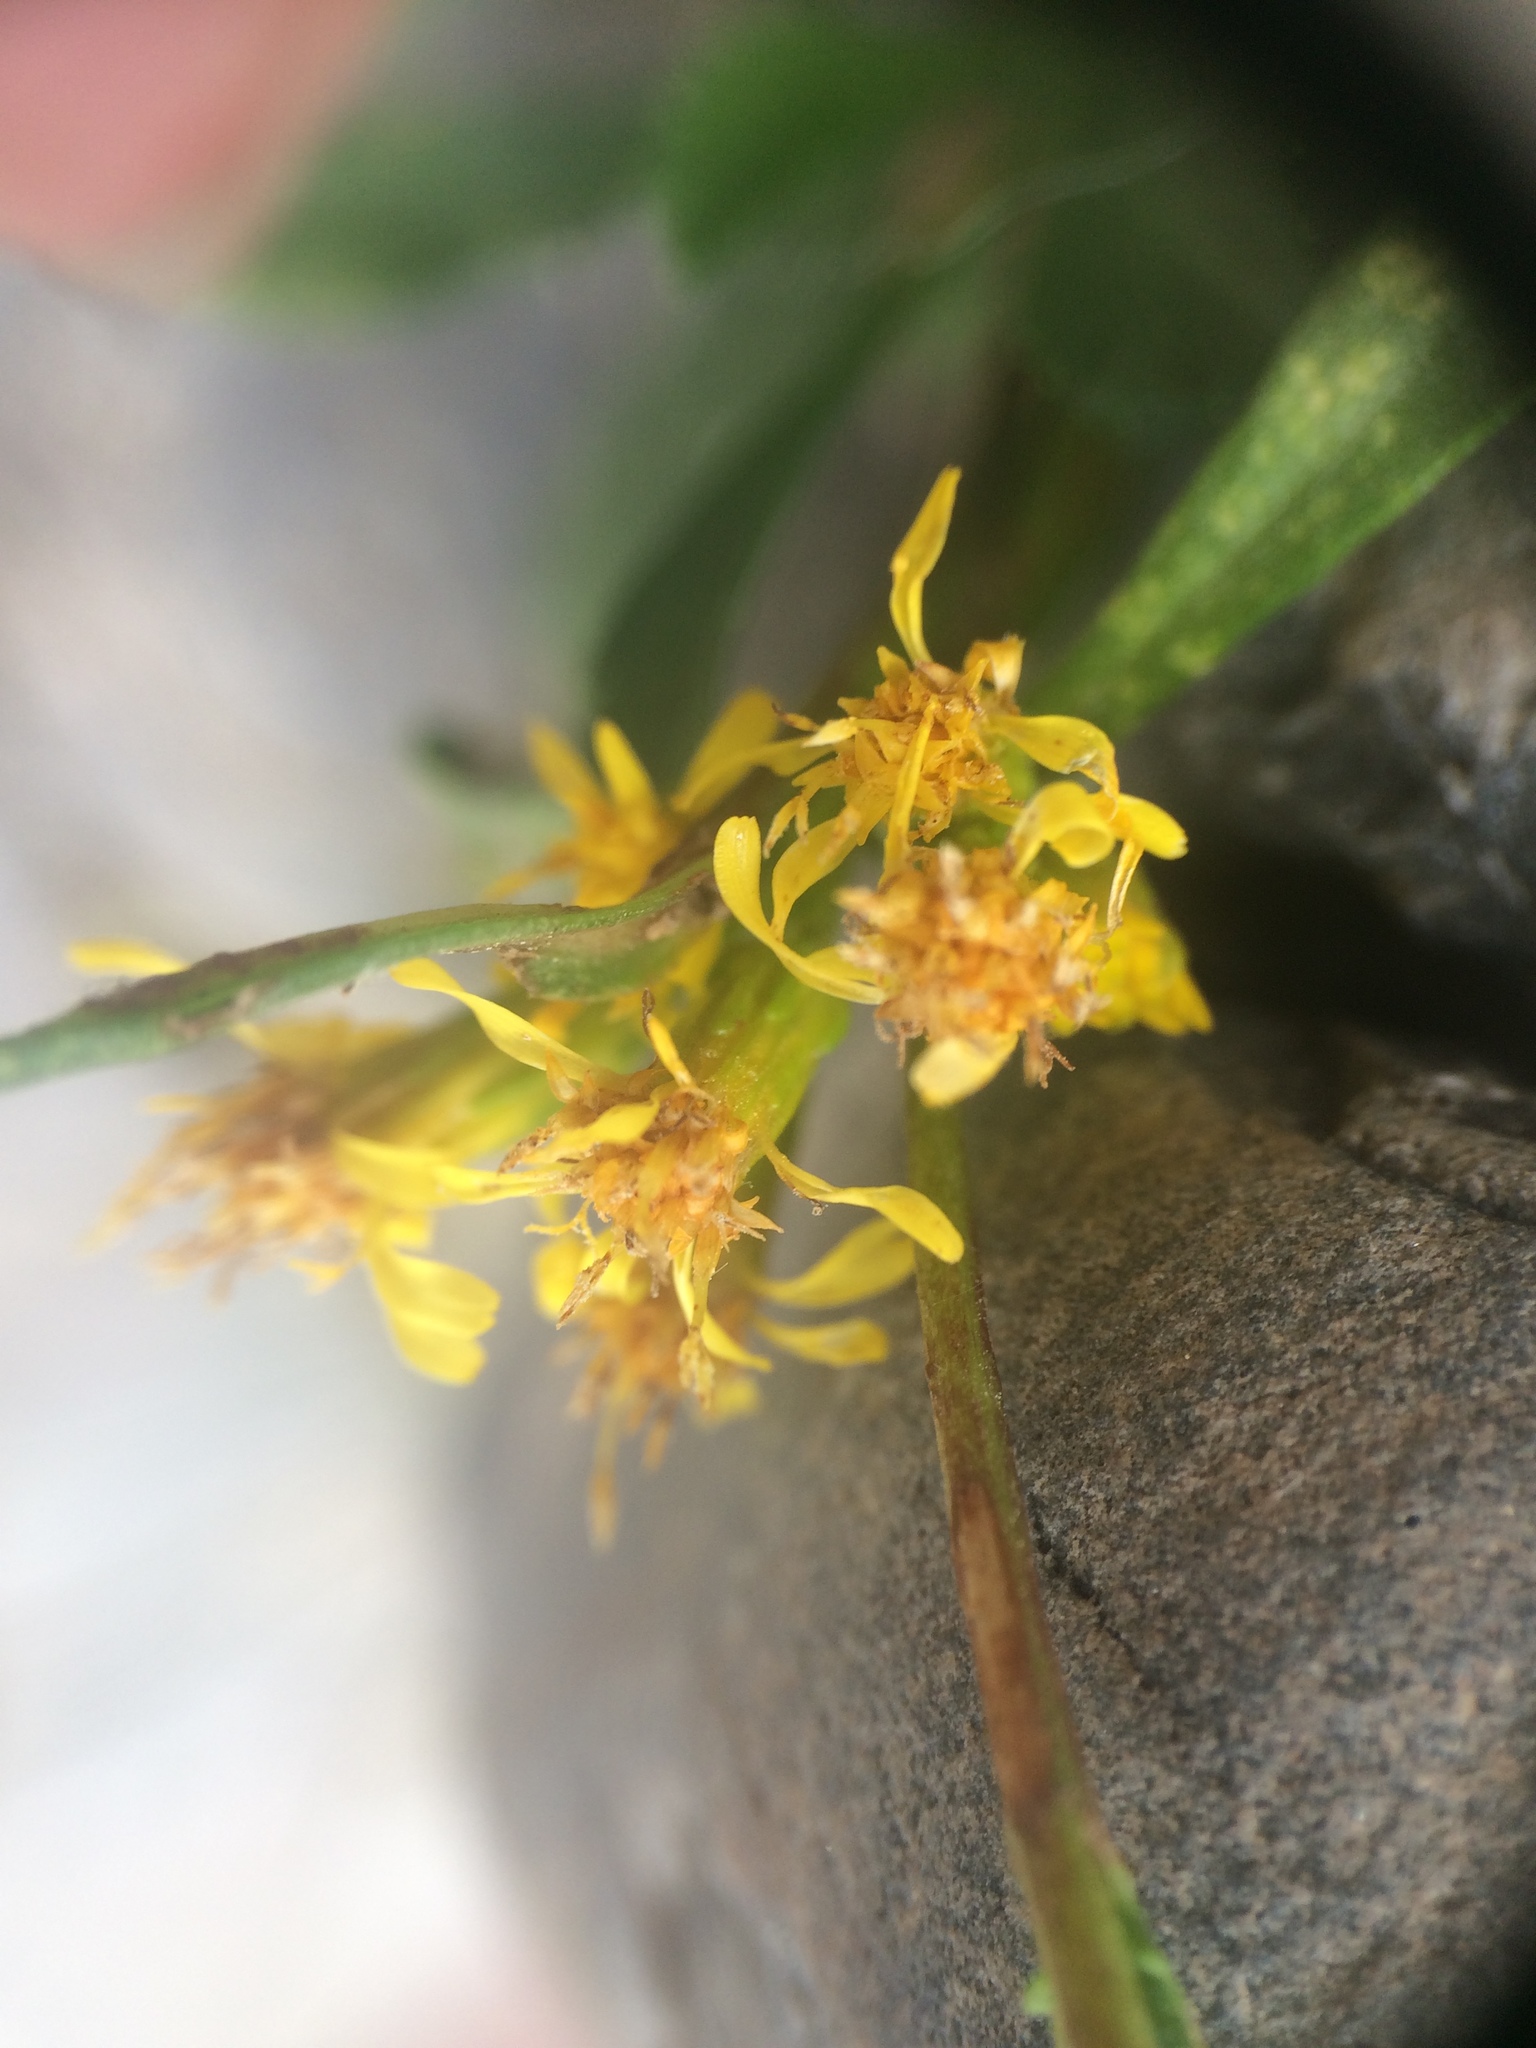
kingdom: Plantae
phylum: Tracheophyta
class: Magnoliopsida
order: Asterales
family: Asteraceae
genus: Solidago
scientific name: Solidago racemosa
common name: Lake ontario goldenrod
